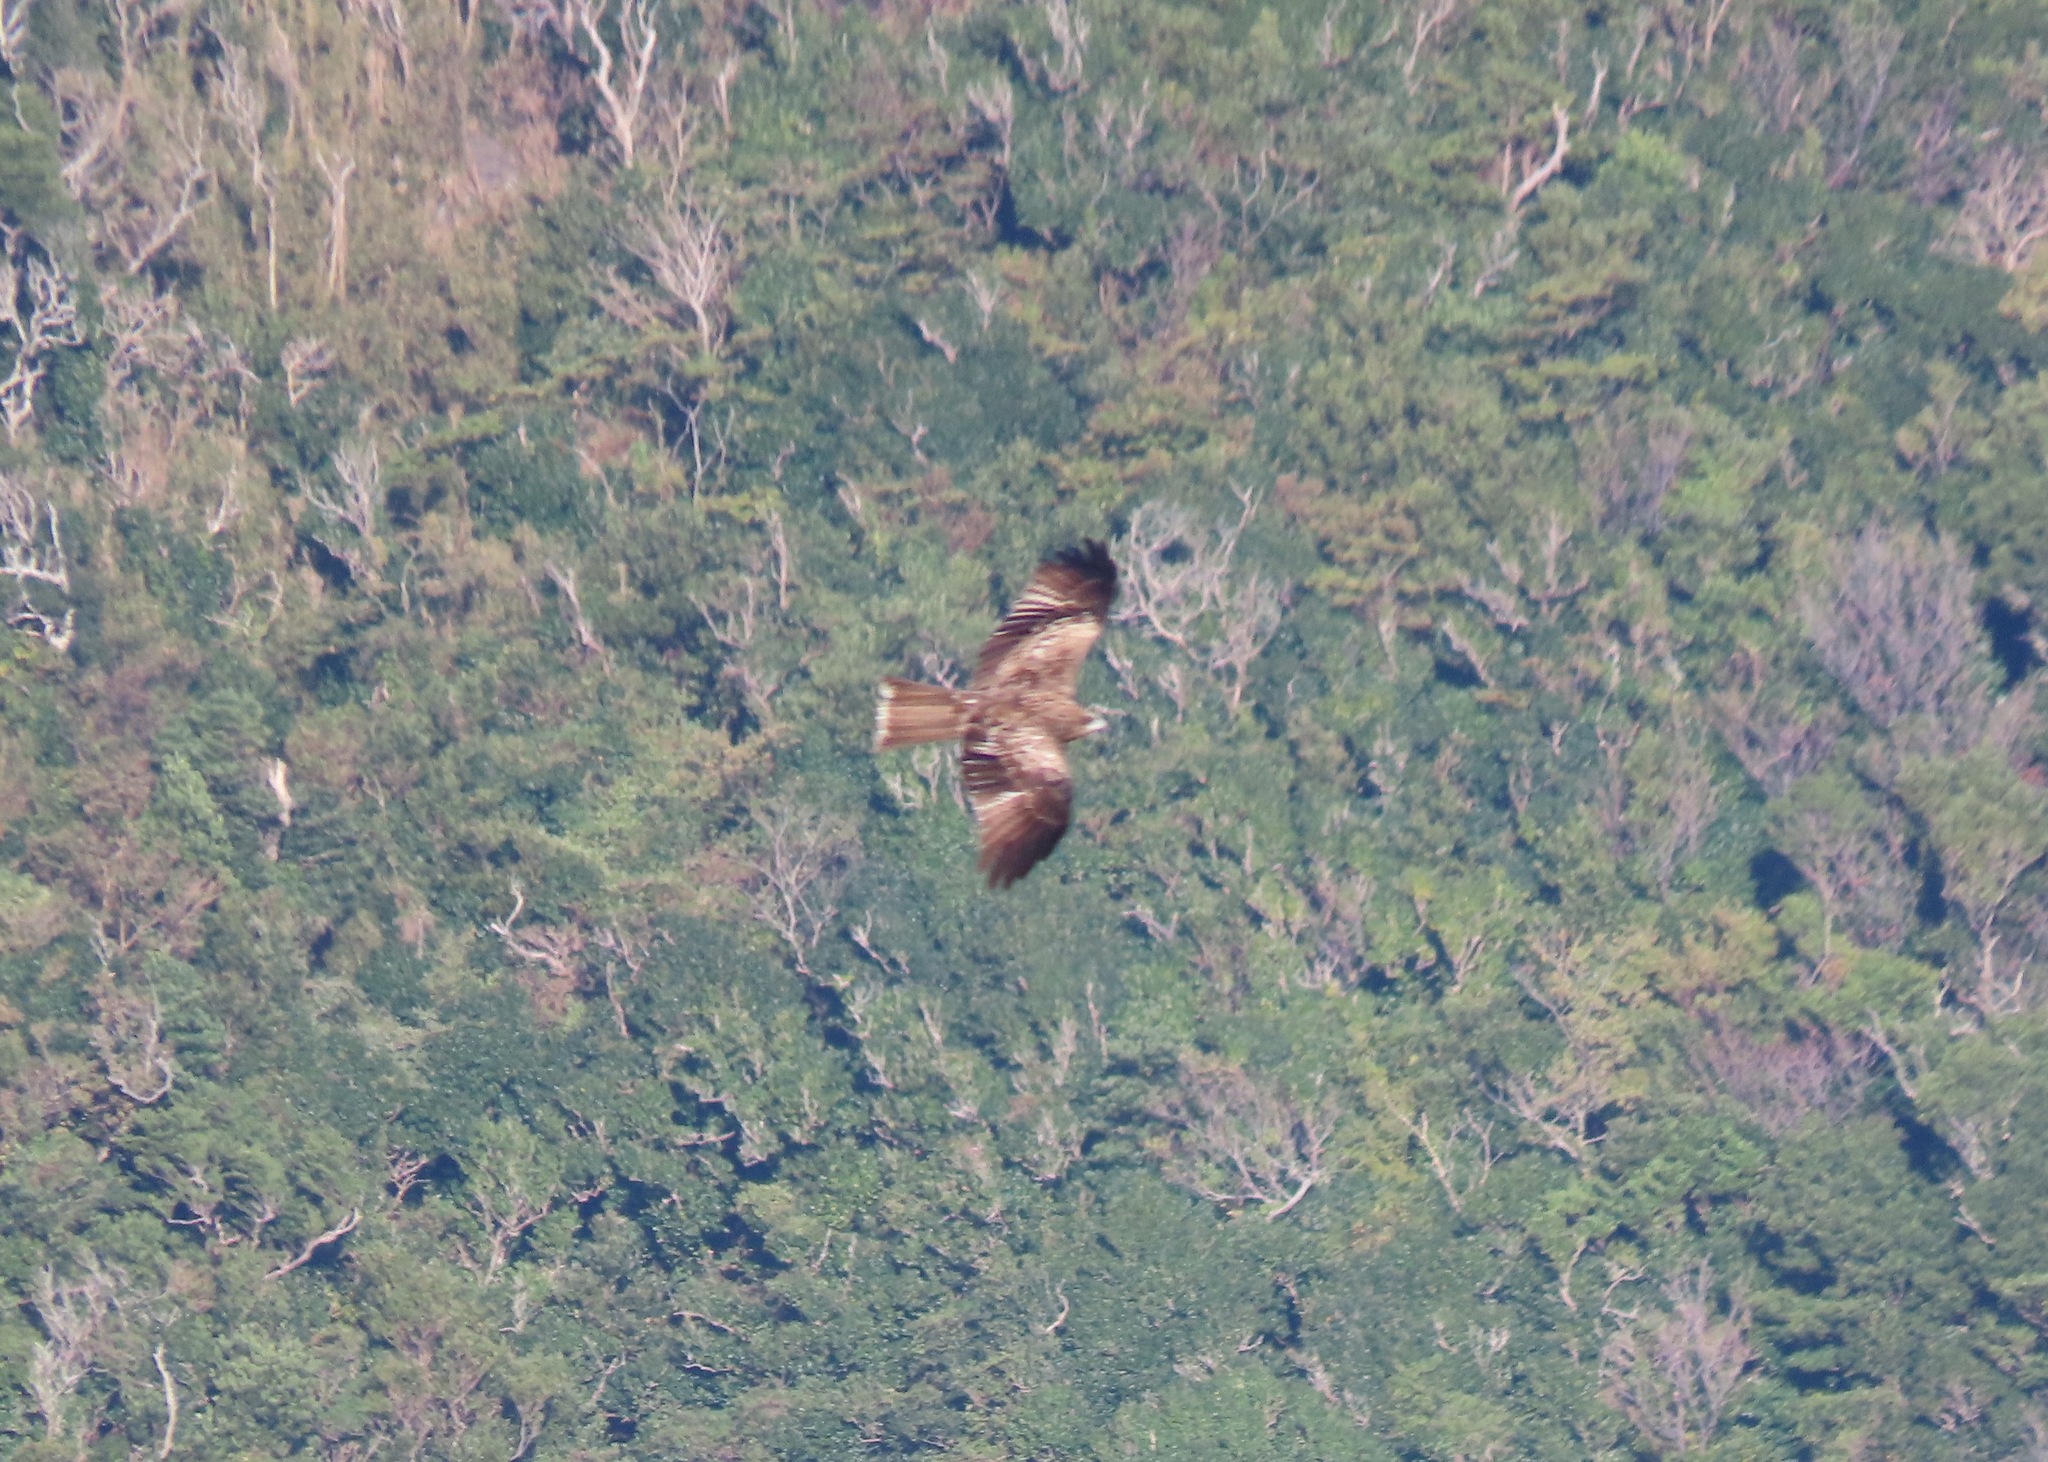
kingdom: Animalia
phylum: Chordata
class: Aves
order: Accipitriformes
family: Accipitridae
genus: Milvus
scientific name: Milvus migrans
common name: Black kite
